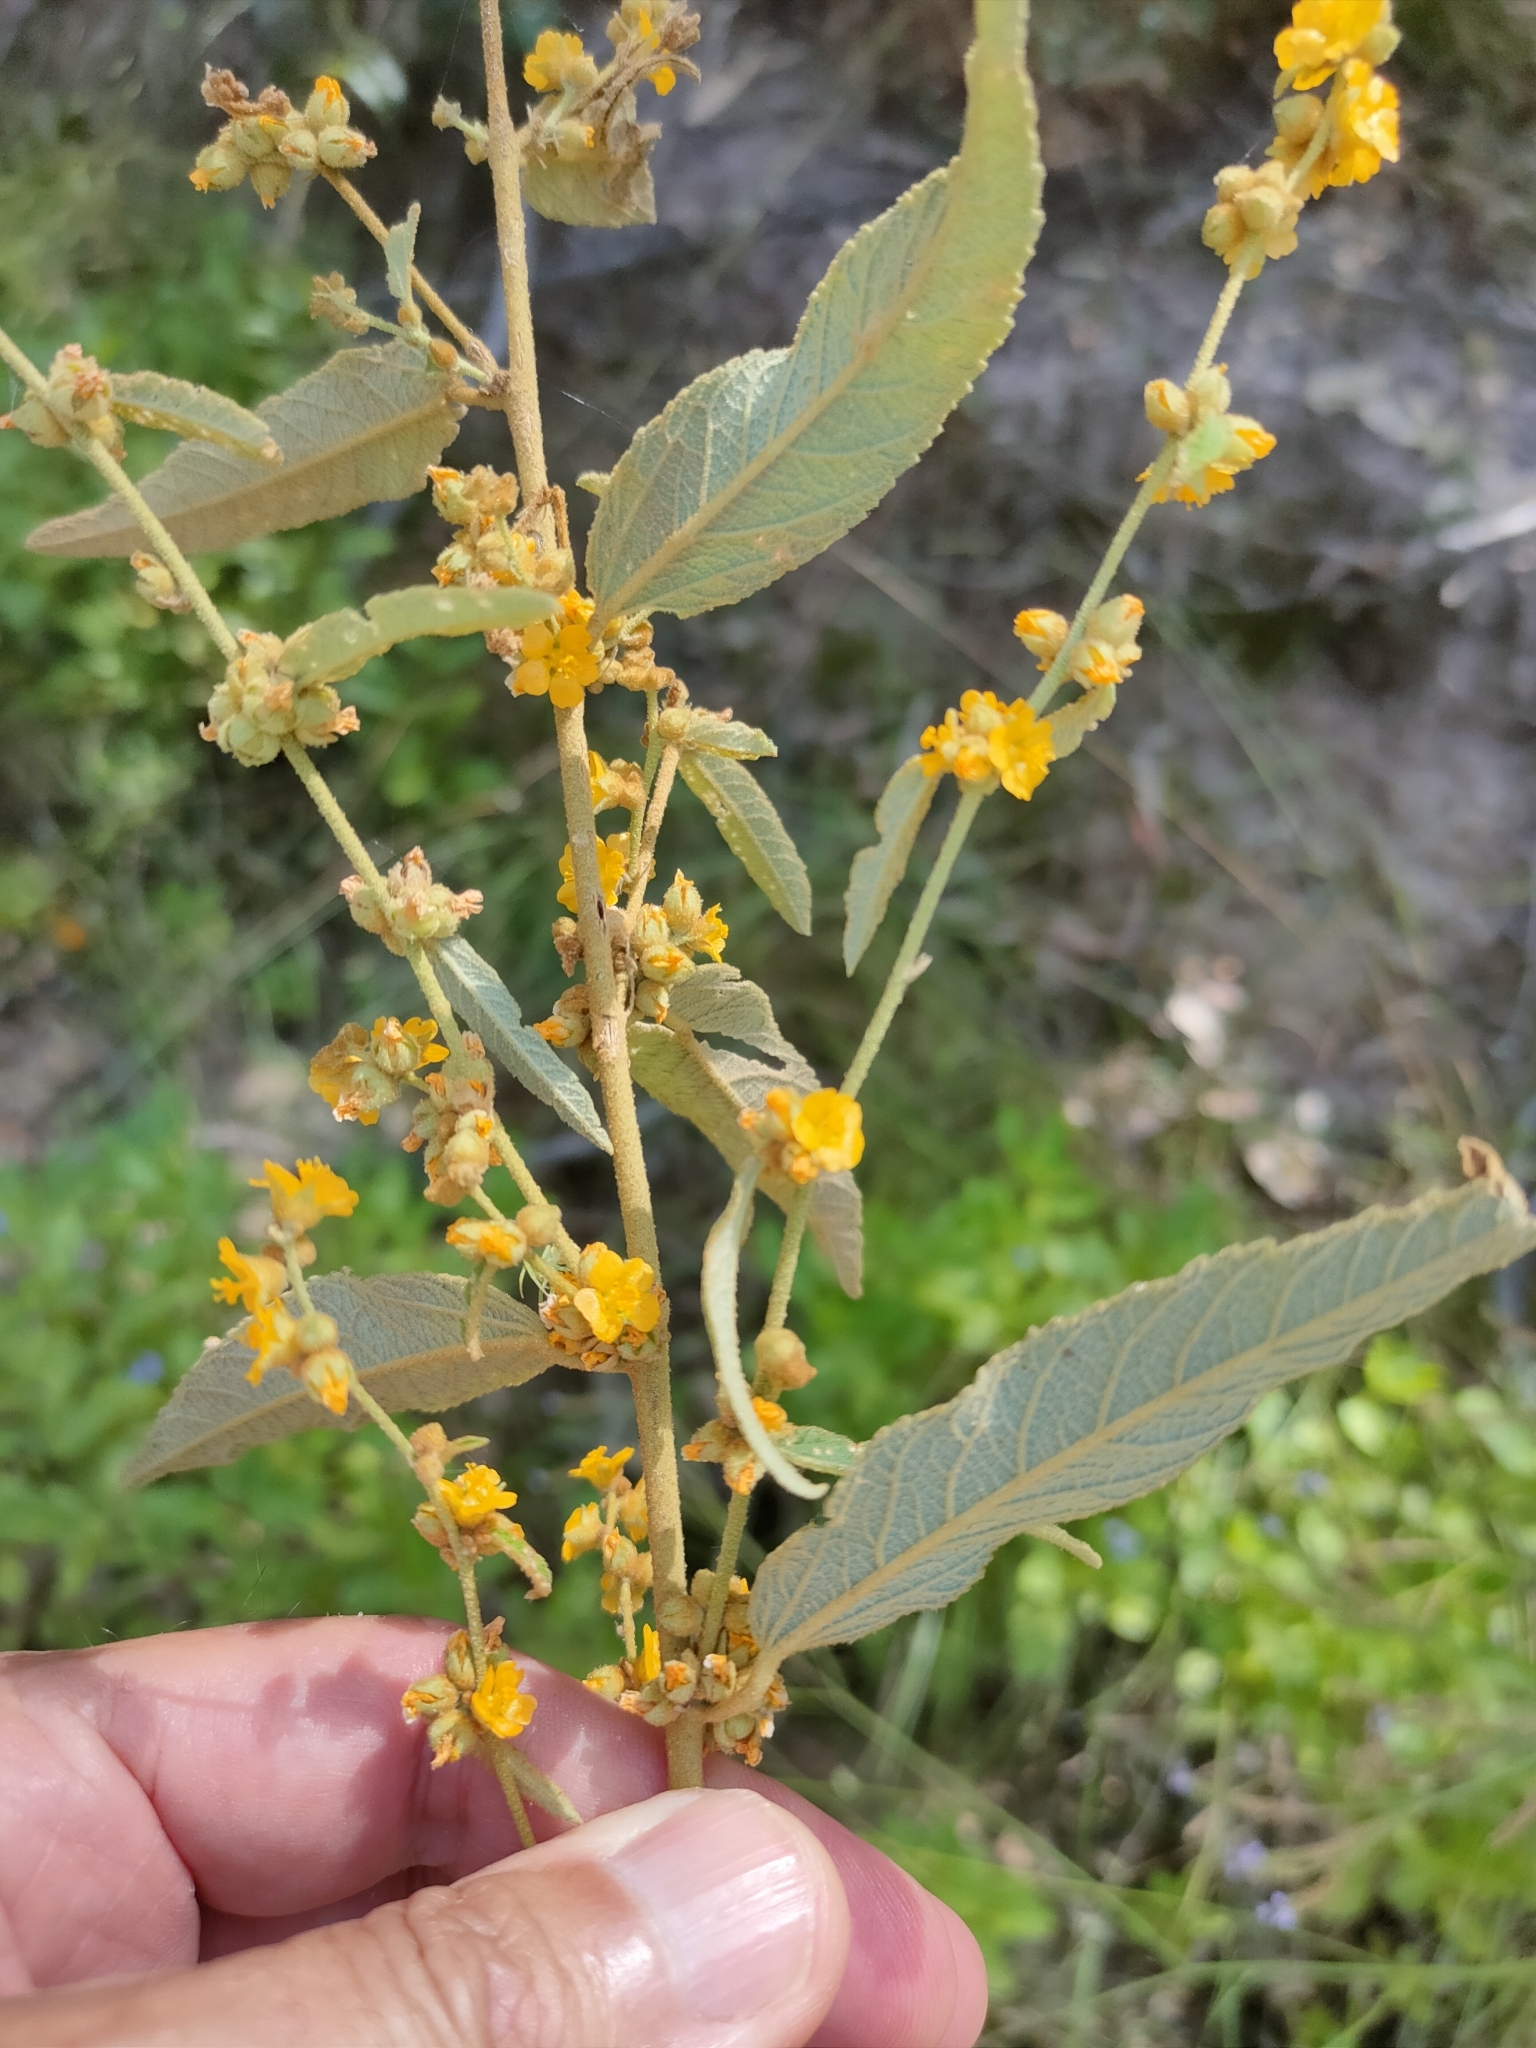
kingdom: Plantae
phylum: Tracheophyta
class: Magnoliopsida
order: Malvales
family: Malvaceae
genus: Sida
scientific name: Sida hackettiana
